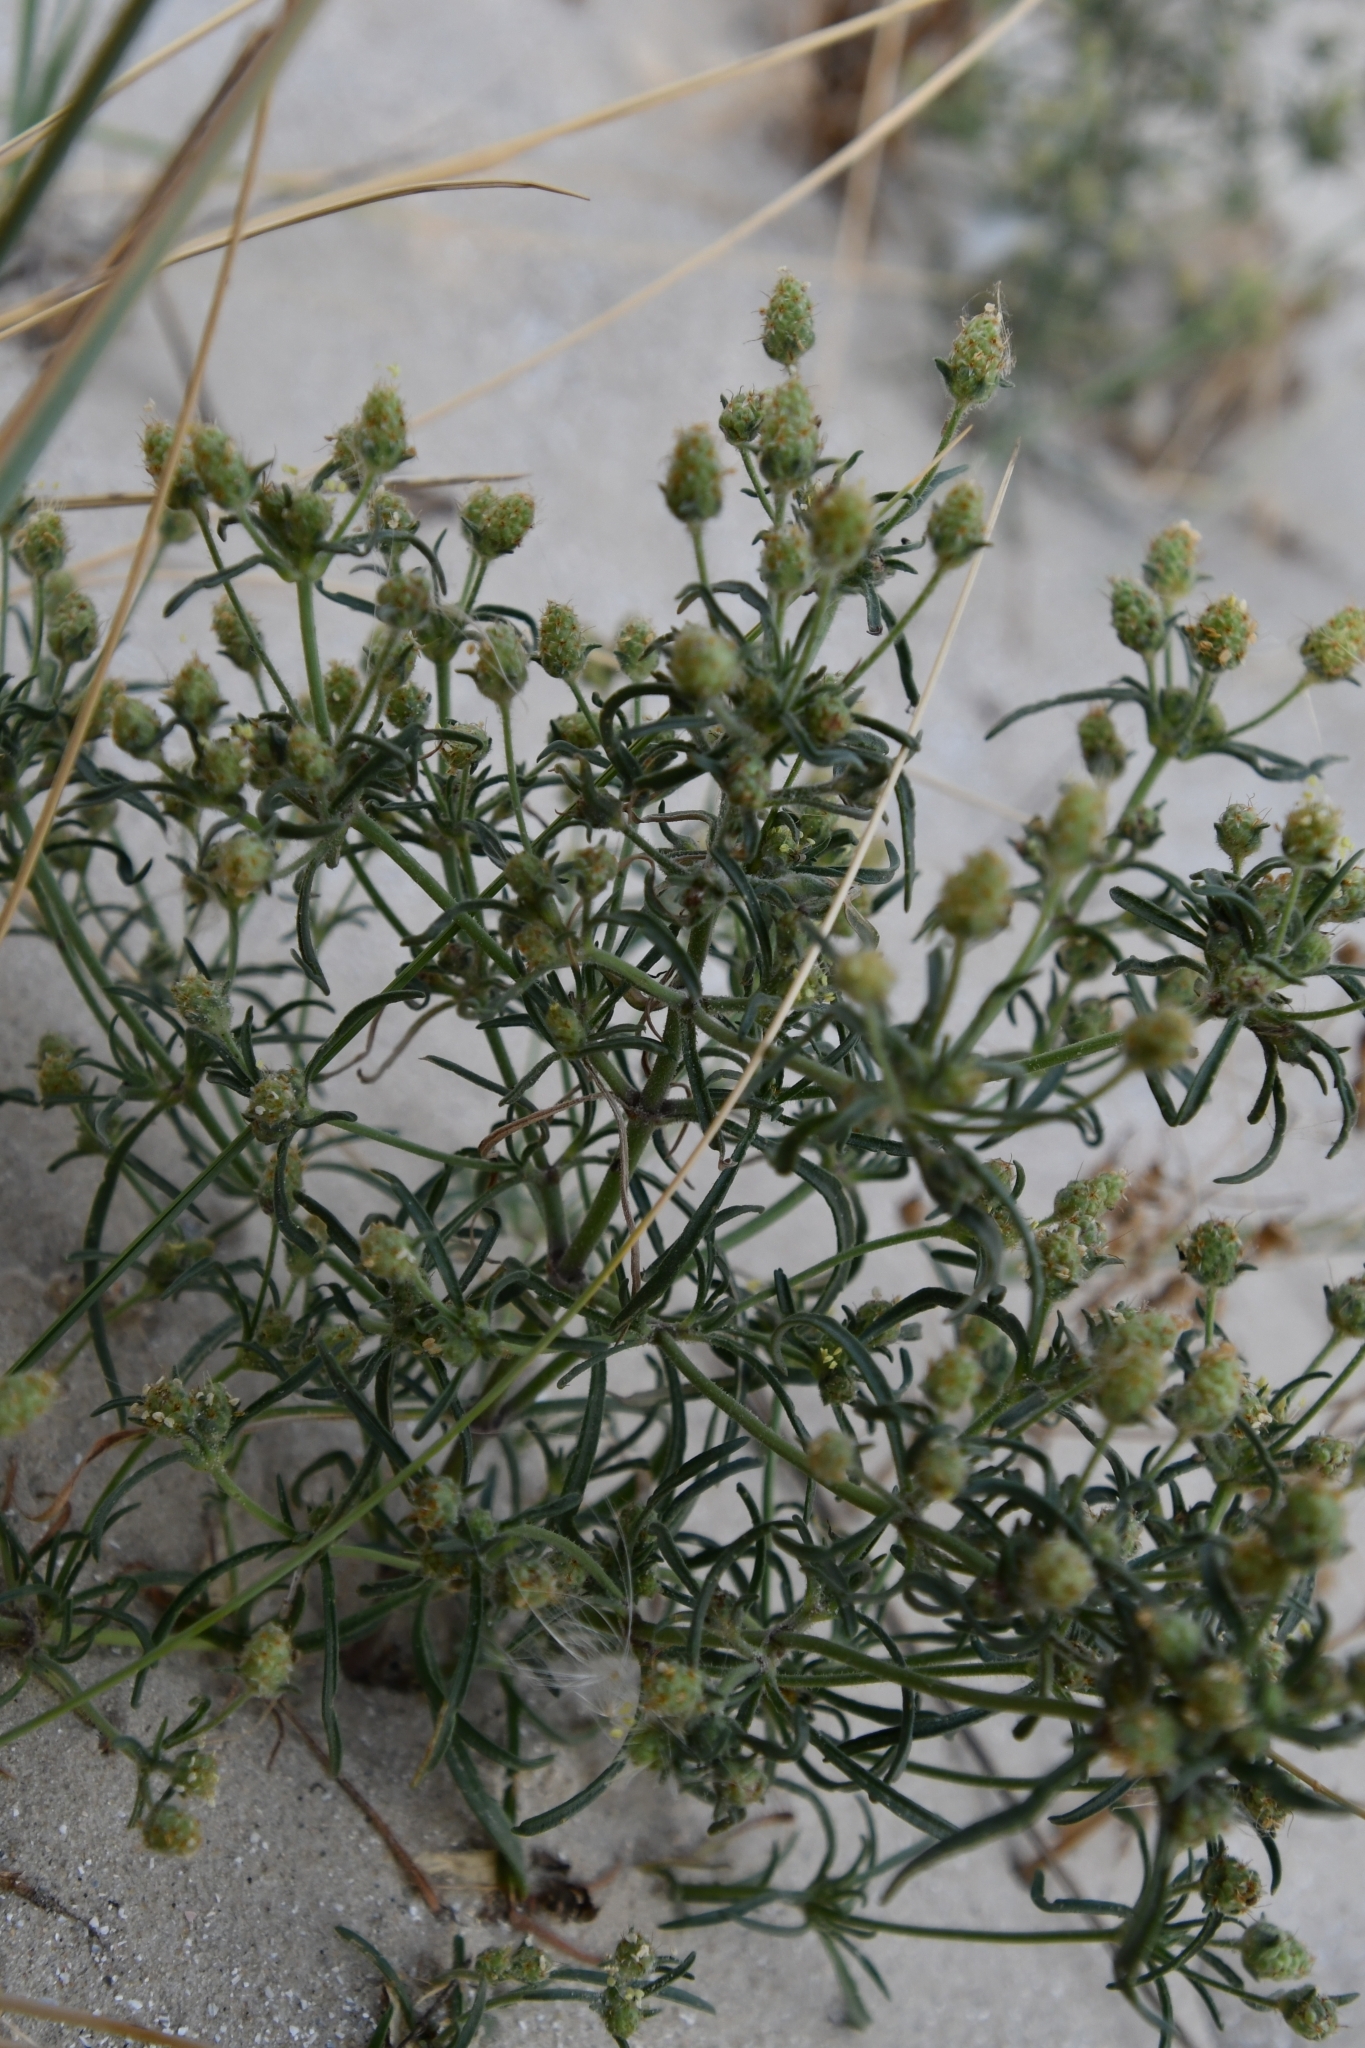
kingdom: Plantae
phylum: Tracheophyta
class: Magnoliopsida
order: Lamiales
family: Plantaginaceae
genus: Plantago
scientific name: Plantago arenaria
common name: Branched plantain
